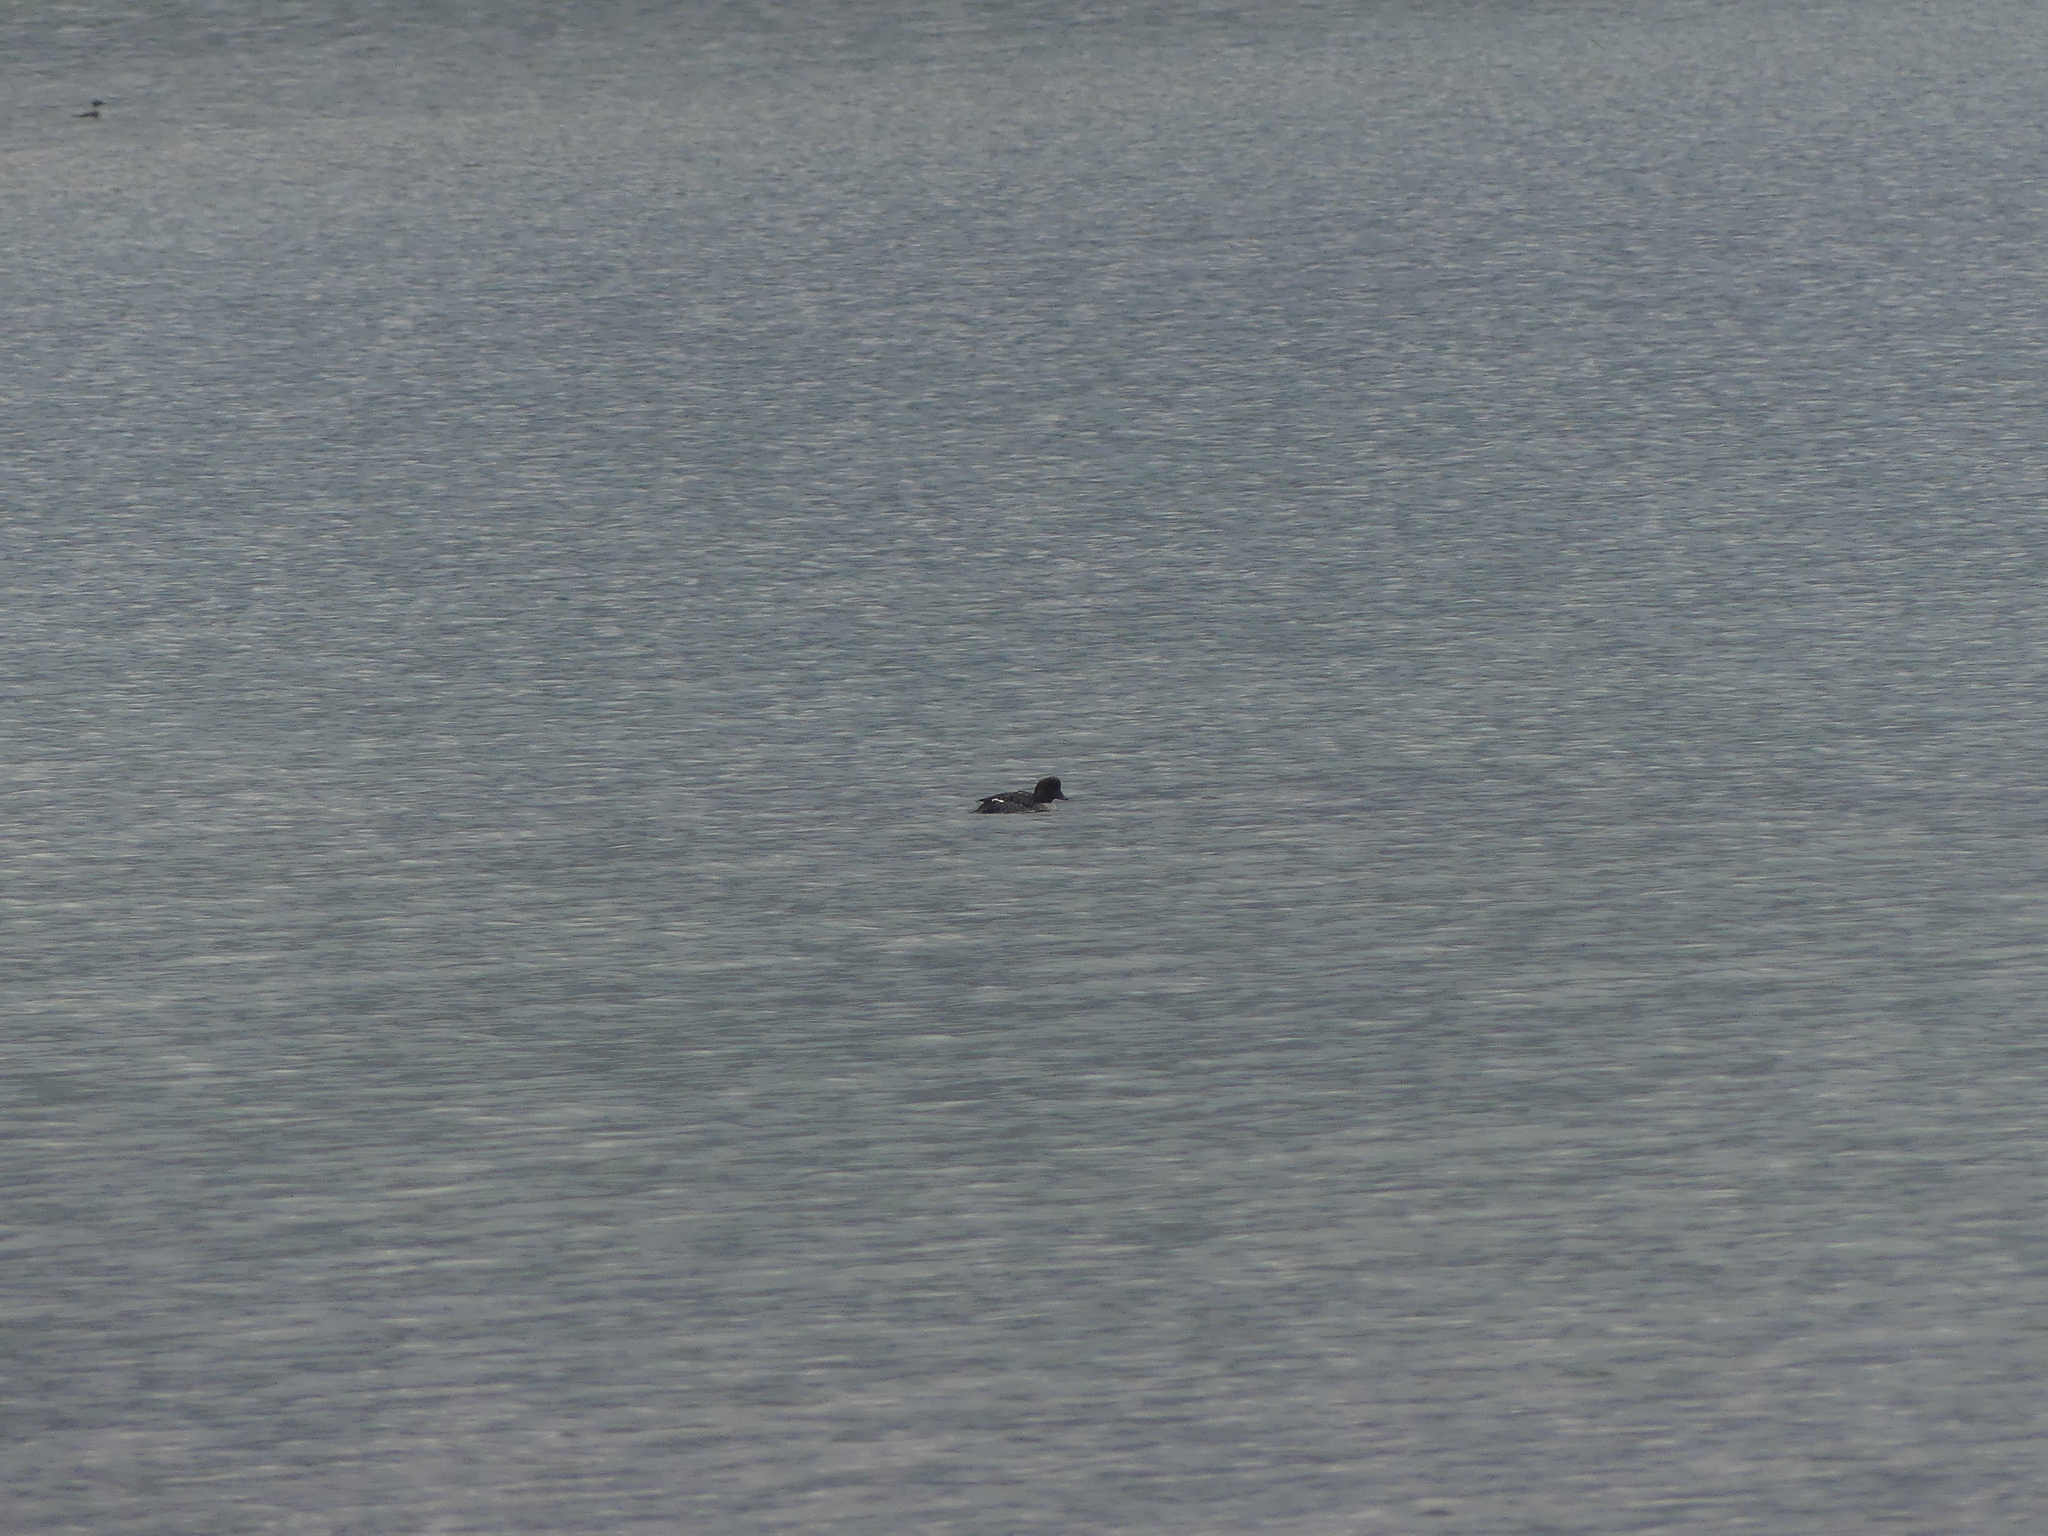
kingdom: Animalia
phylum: Chordata
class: Aves
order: Anseriformes
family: Anatidae
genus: Bucephala
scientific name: Bucephala islandica
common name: Barrow's goldeneye
